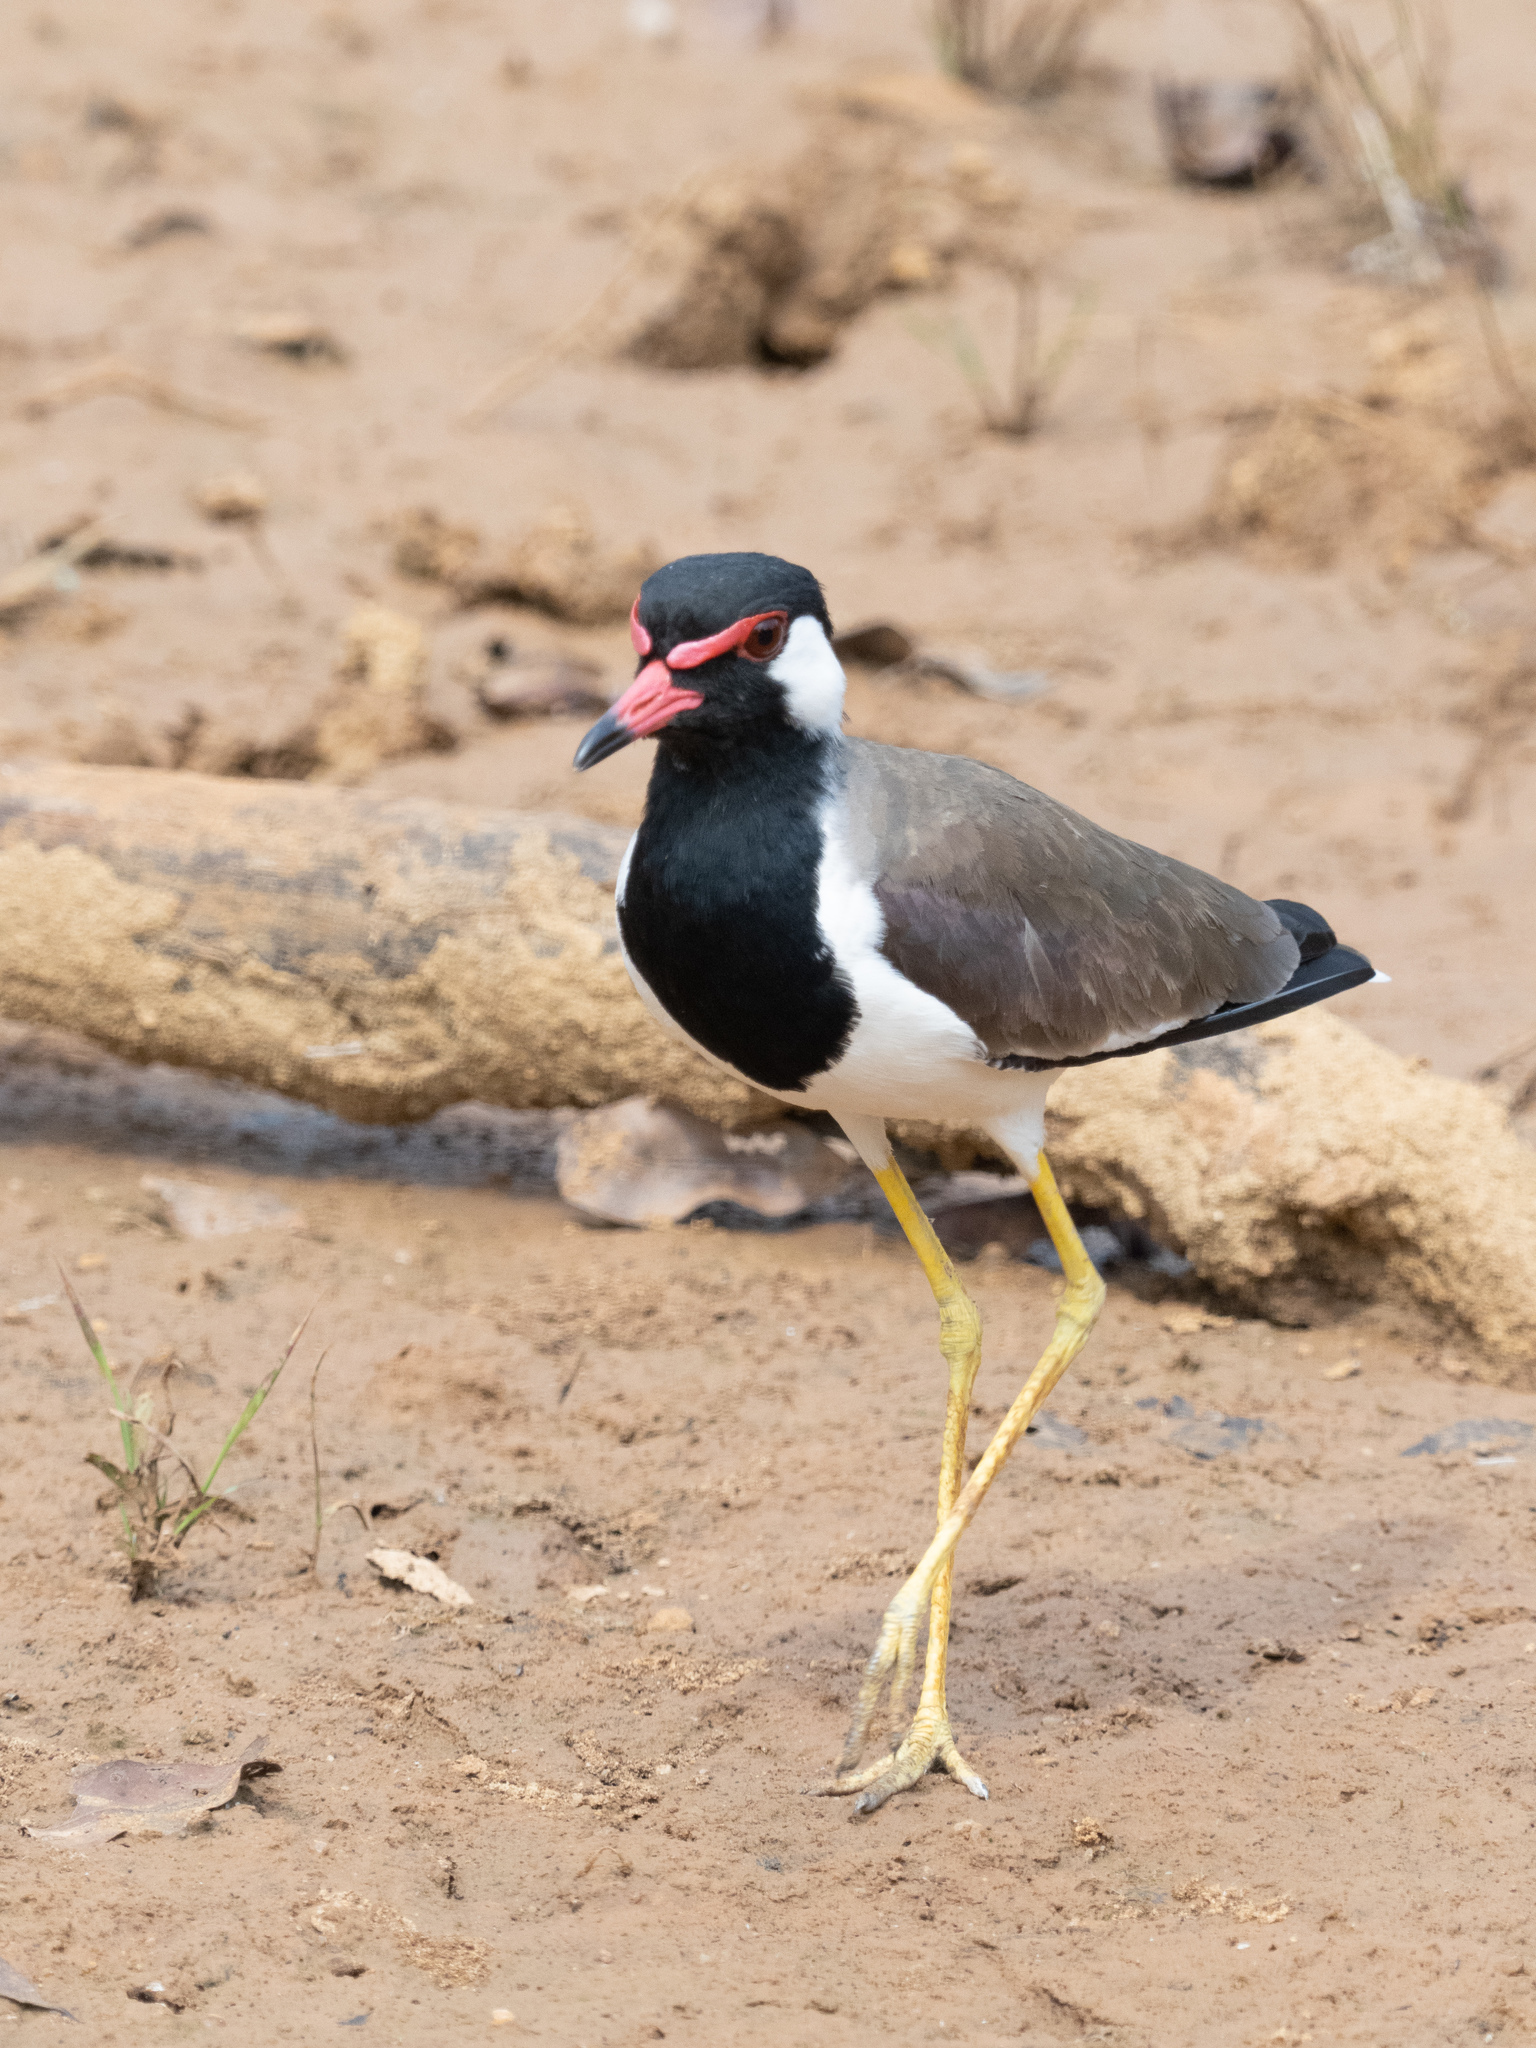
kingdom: Animalia
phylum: Chordata
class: Aves
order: Charadriiformes
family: Charadriidae
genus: Vanellus
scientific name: Vanellus indicus
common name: Red-wattled lapwing
